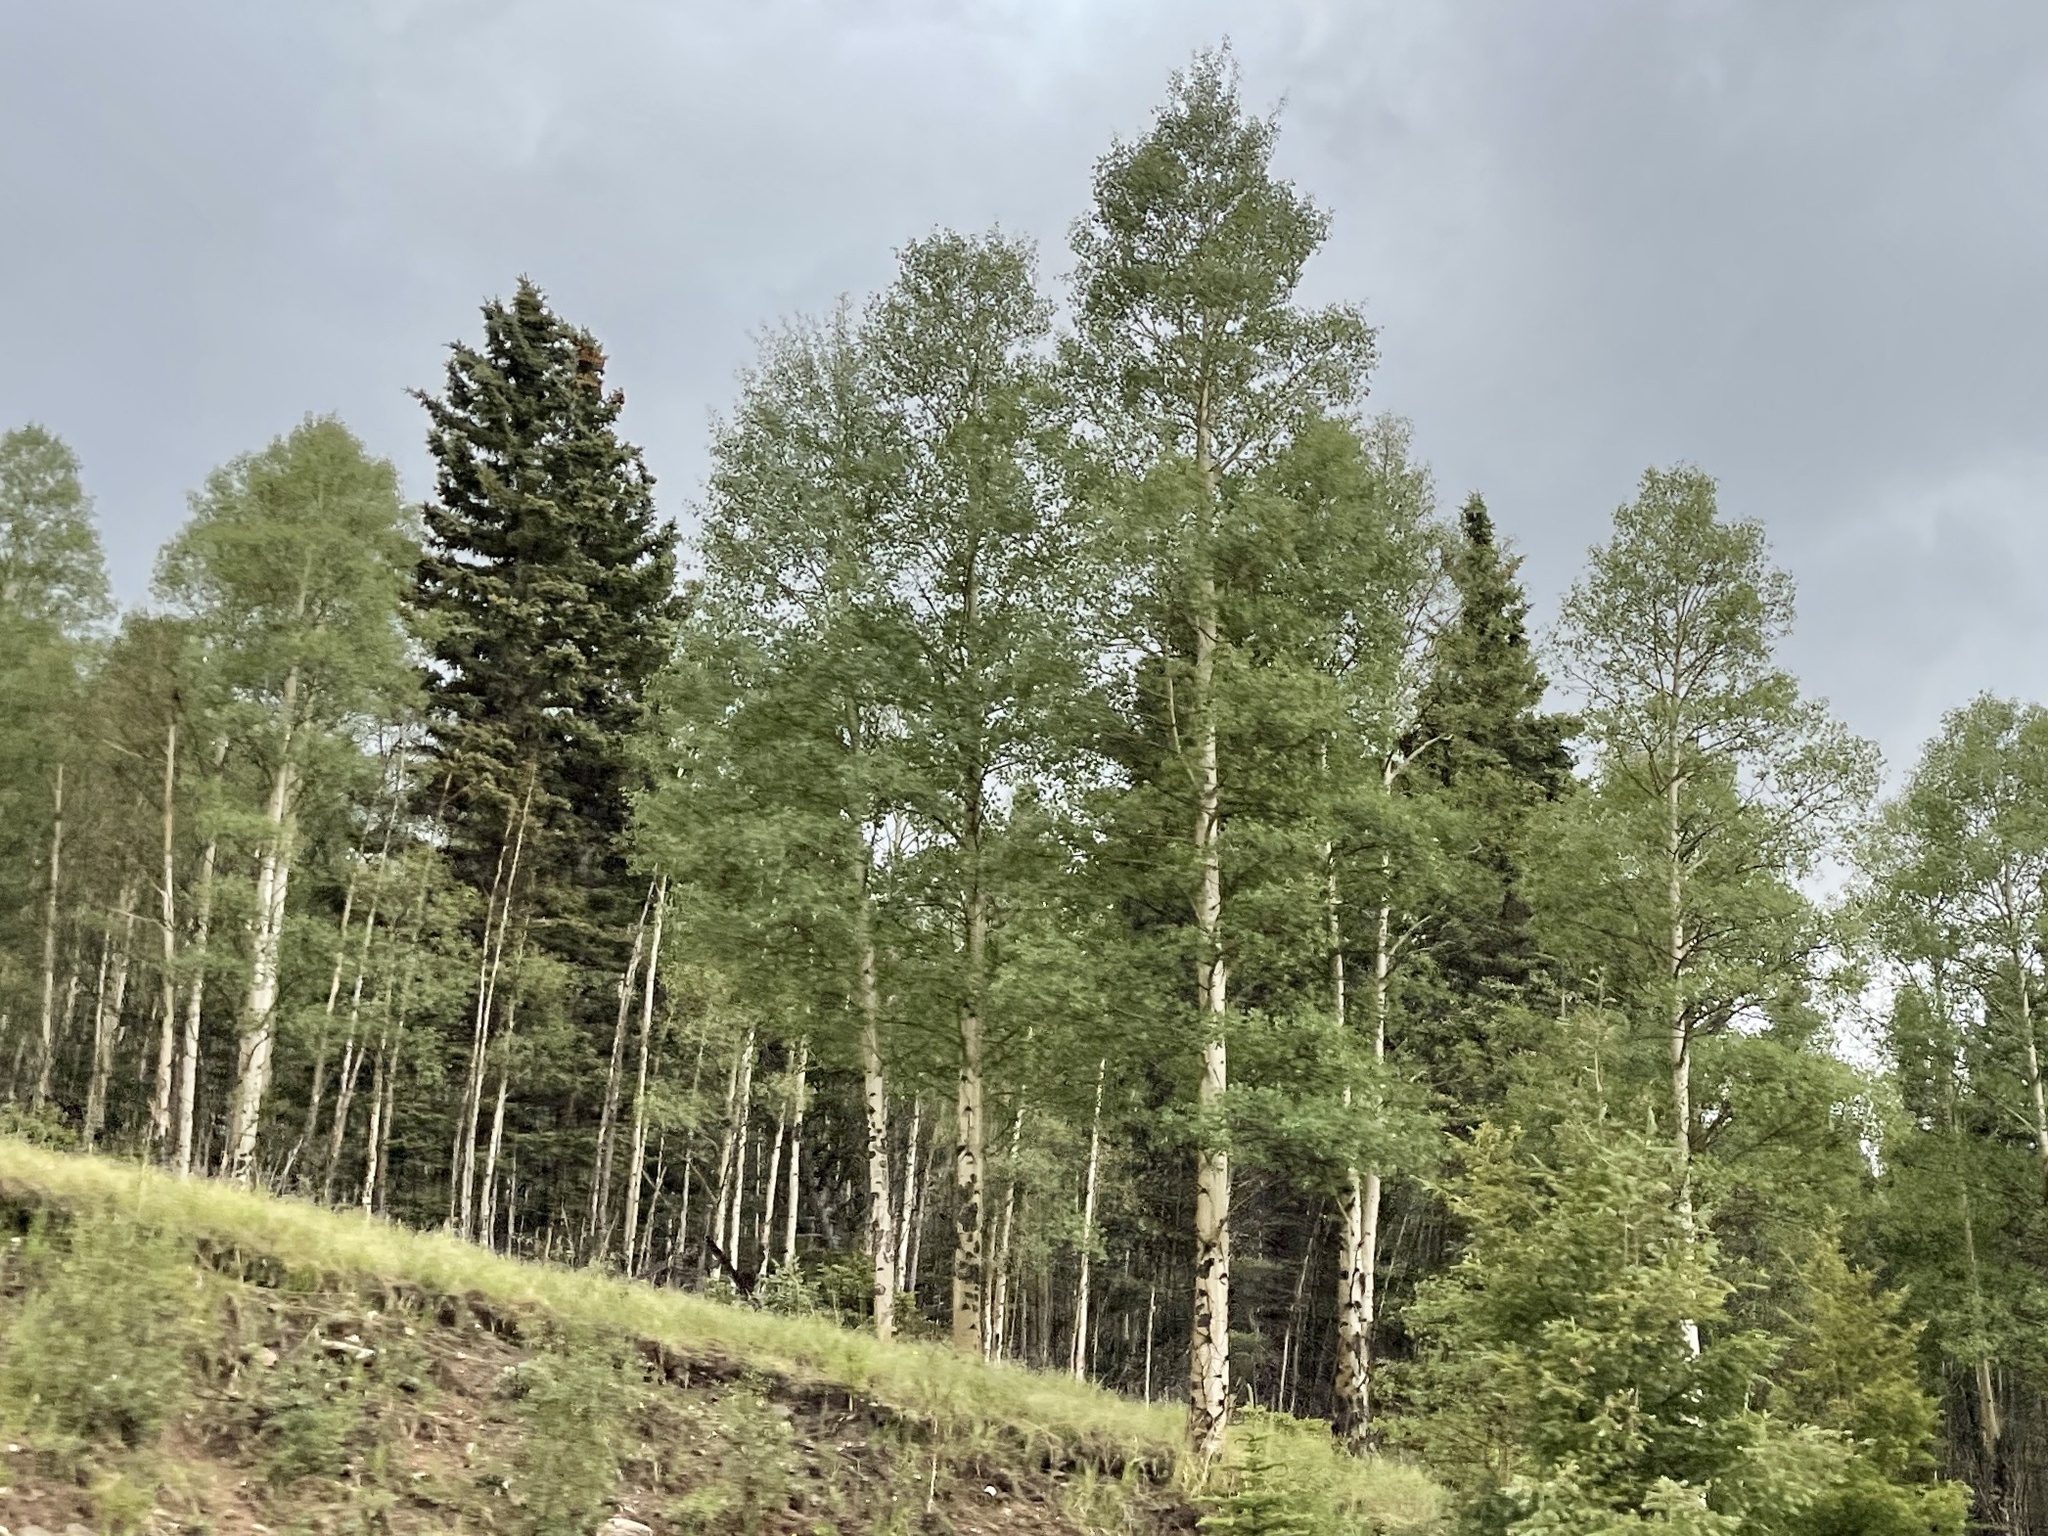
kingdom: Plantae
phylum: Tracheophyta
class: Magnoliopsida
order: Malpighiales
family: Salicaceae
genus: Populus
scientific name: Populus tremuloides
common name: Quaking aspen
